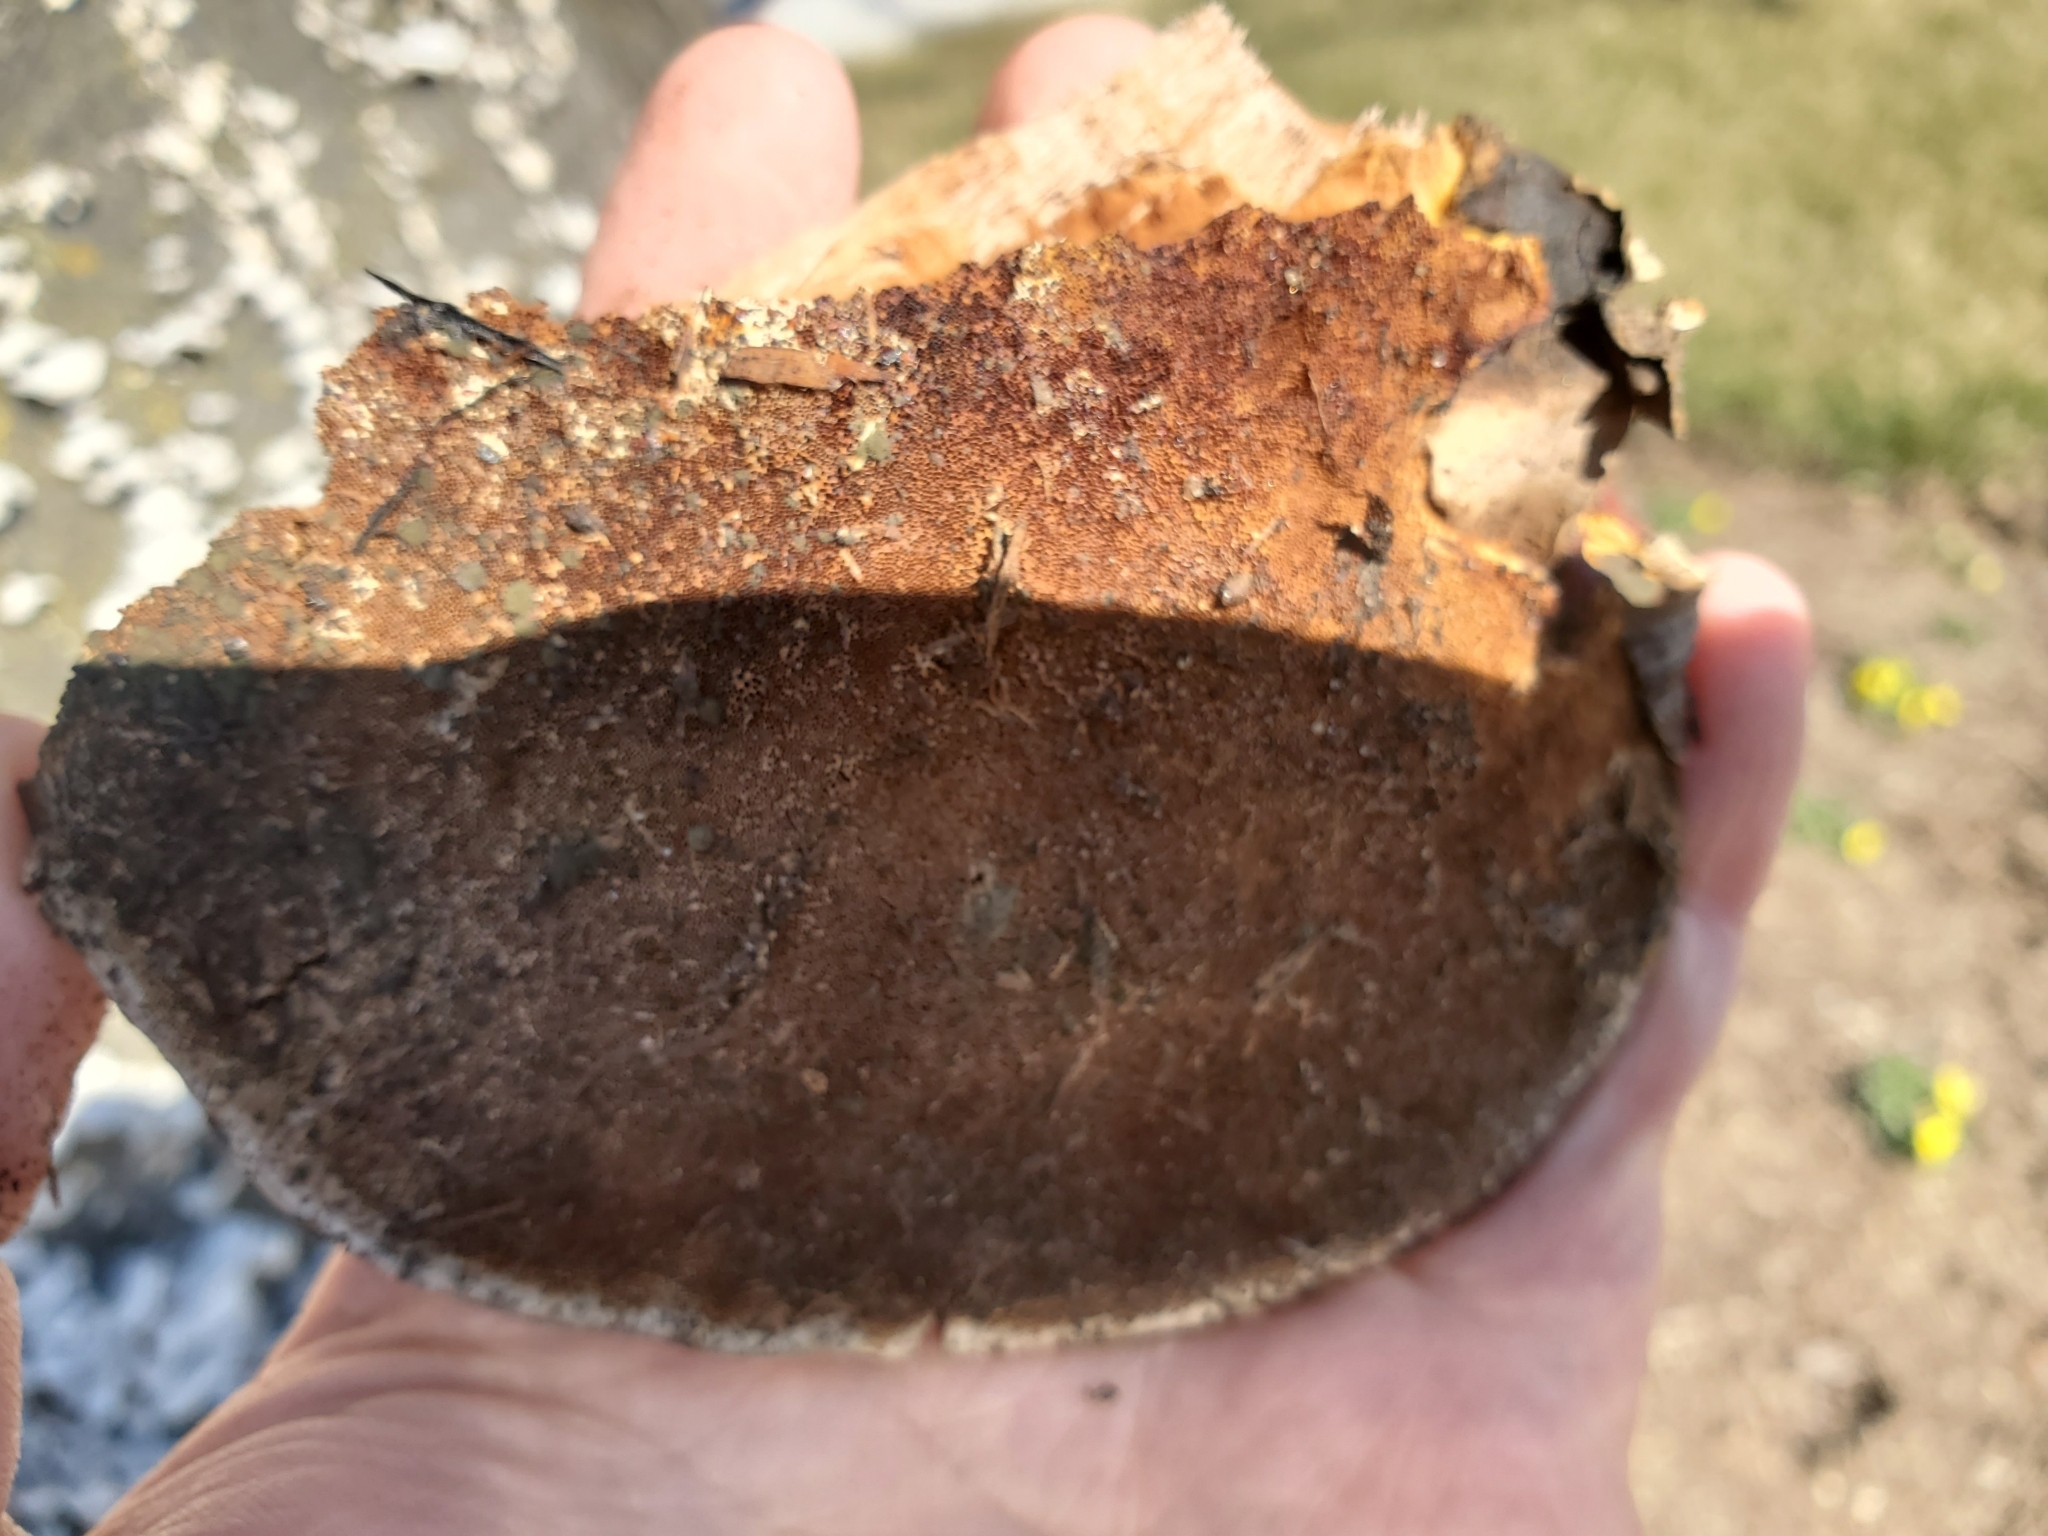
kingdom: Fungi
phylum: Basidiomycota
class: Agaricomycetes
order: Polyporales
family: Polyporaceae
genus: Ganoderma
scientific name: Ganoderma resinaceum
